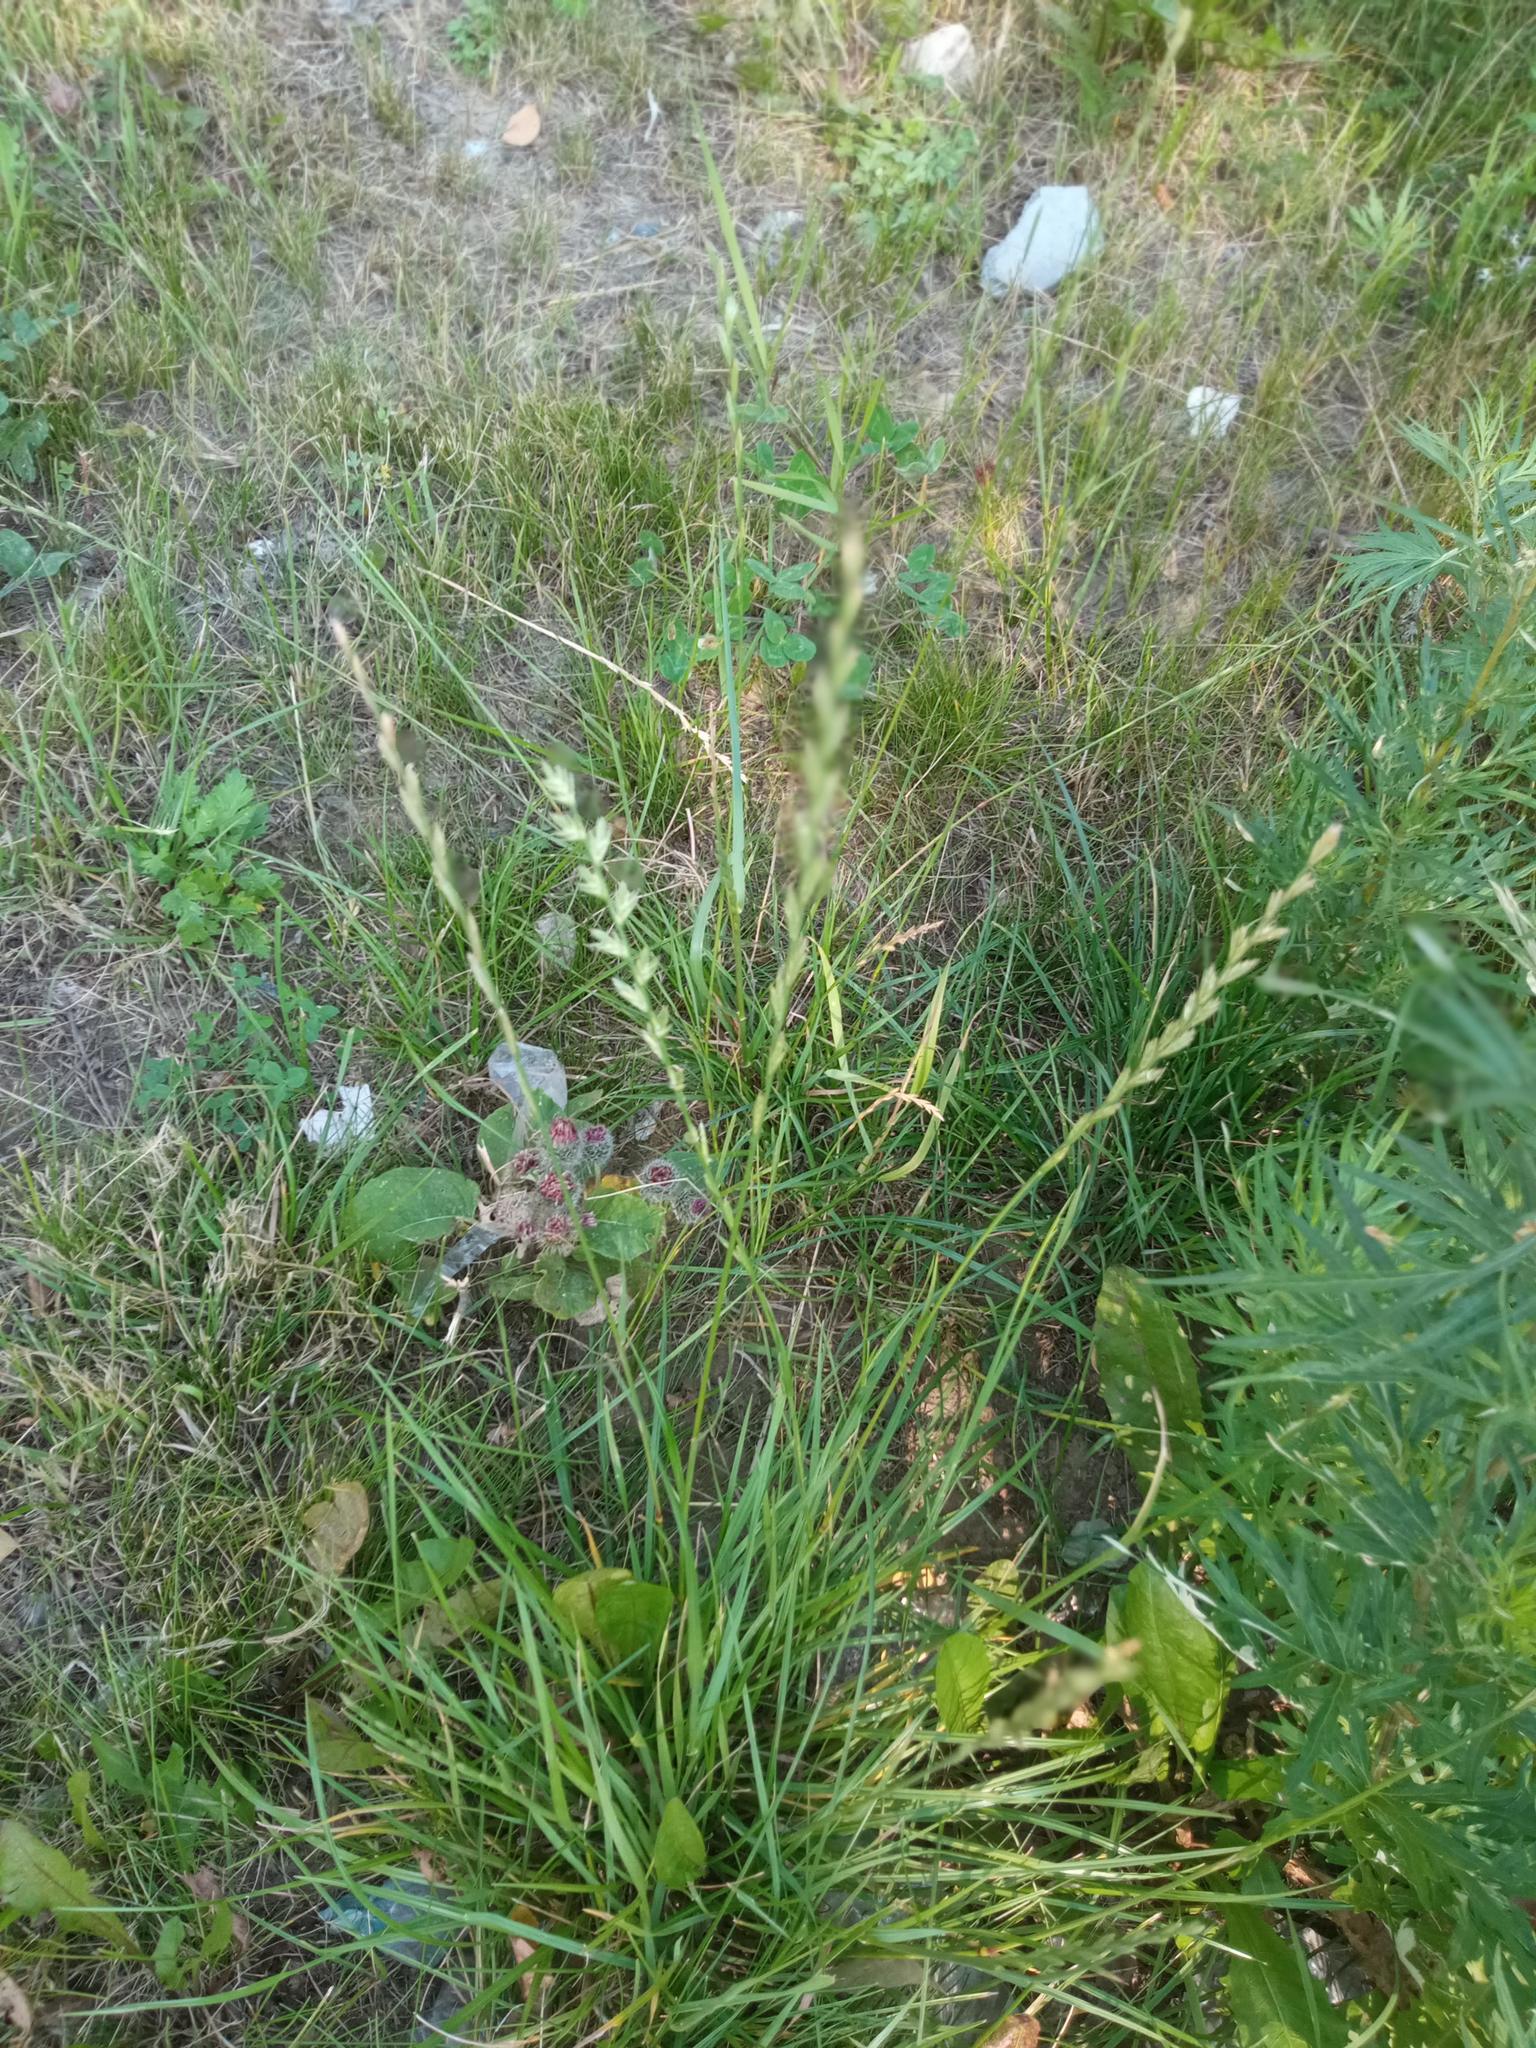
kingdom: Plantae
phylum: Tracheophyta
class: Liliopsida
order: Poales
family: Poaceae
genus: Lolium
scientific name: Lolium perenne
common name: Perennial ryegrass
